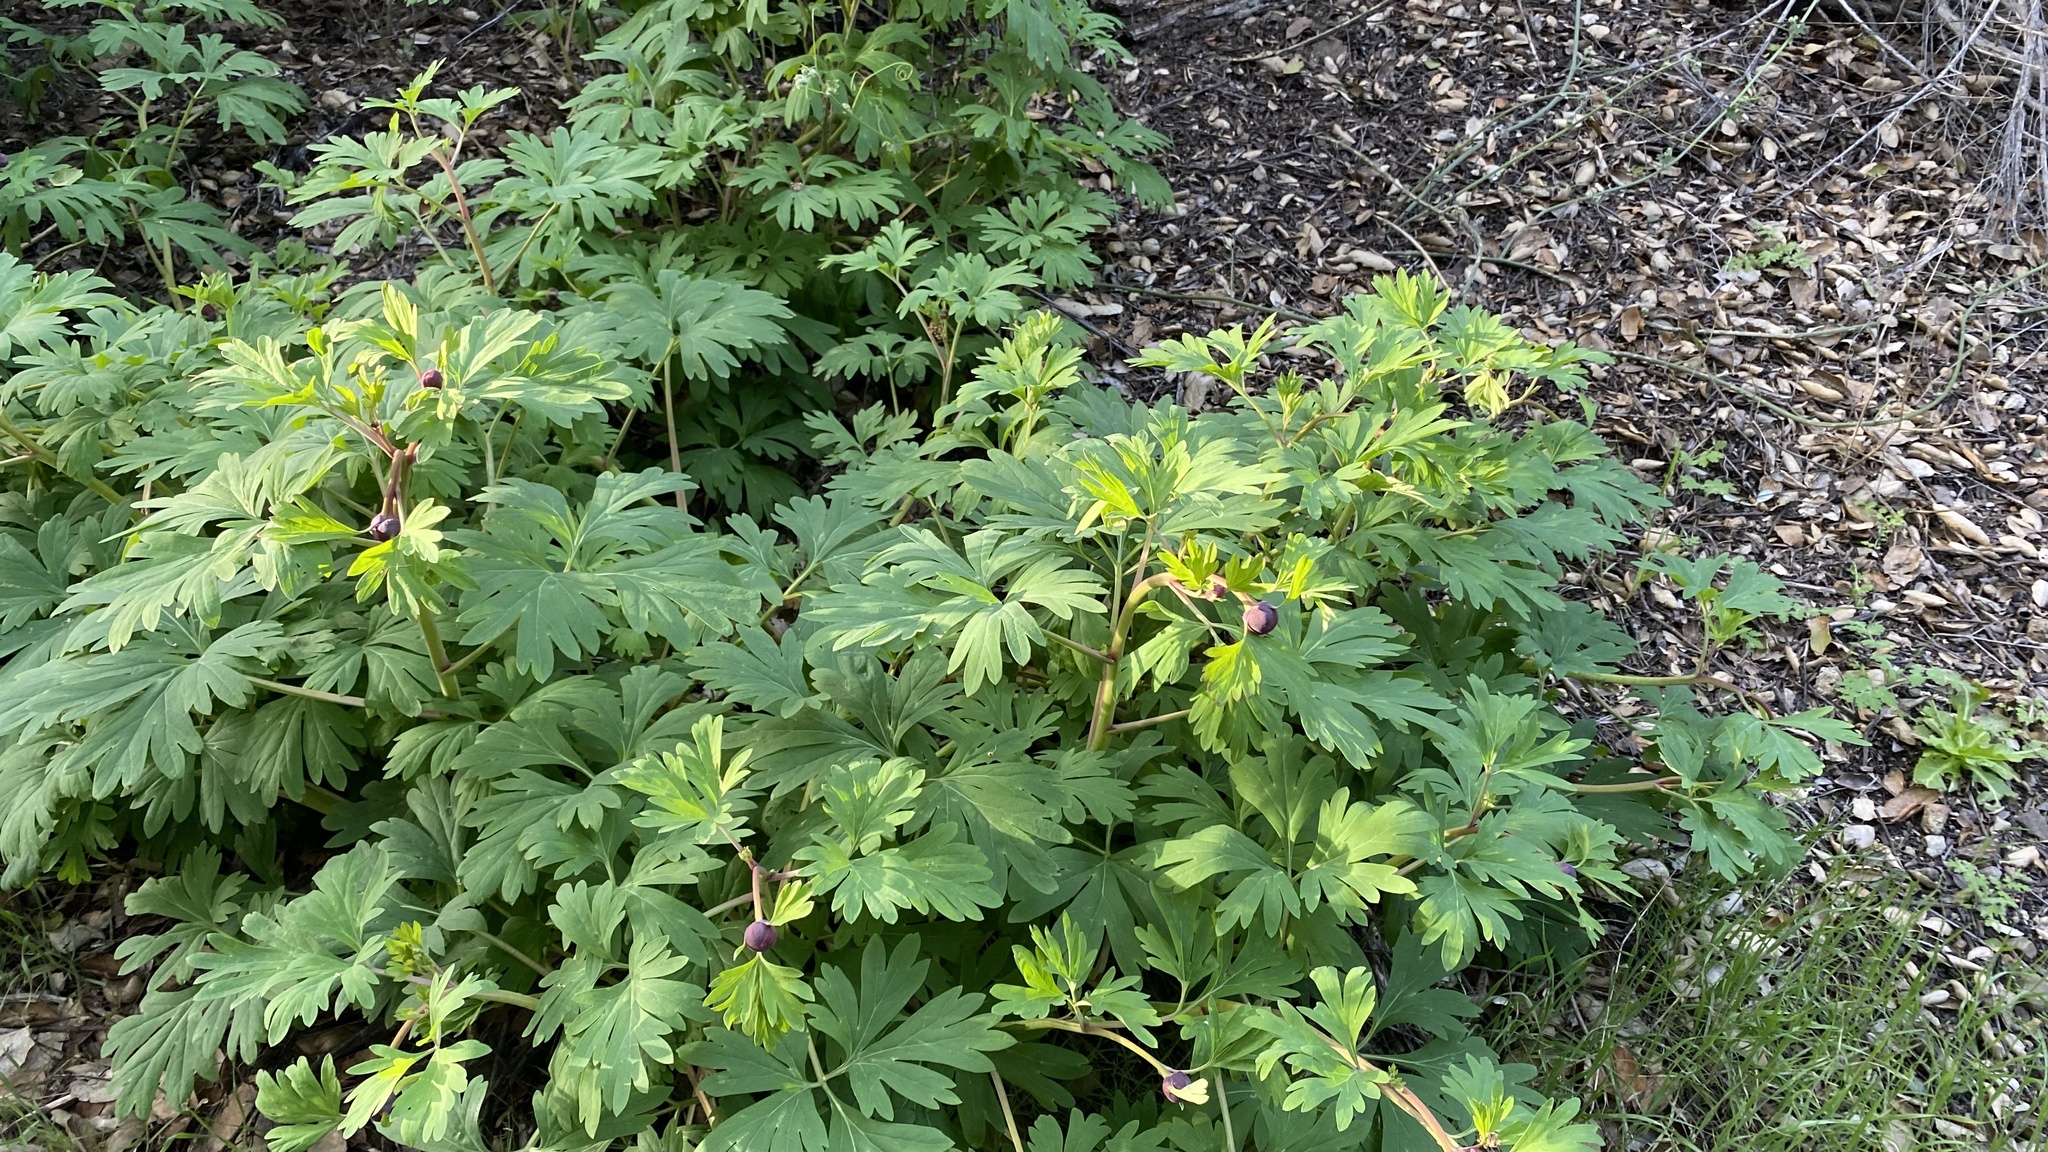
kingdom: Plantae
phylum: Tracheophyta
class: Magnoliopsida
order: Saxifragales
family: Paeoniaceae
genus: Paeonia
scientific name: Paeonia californica
